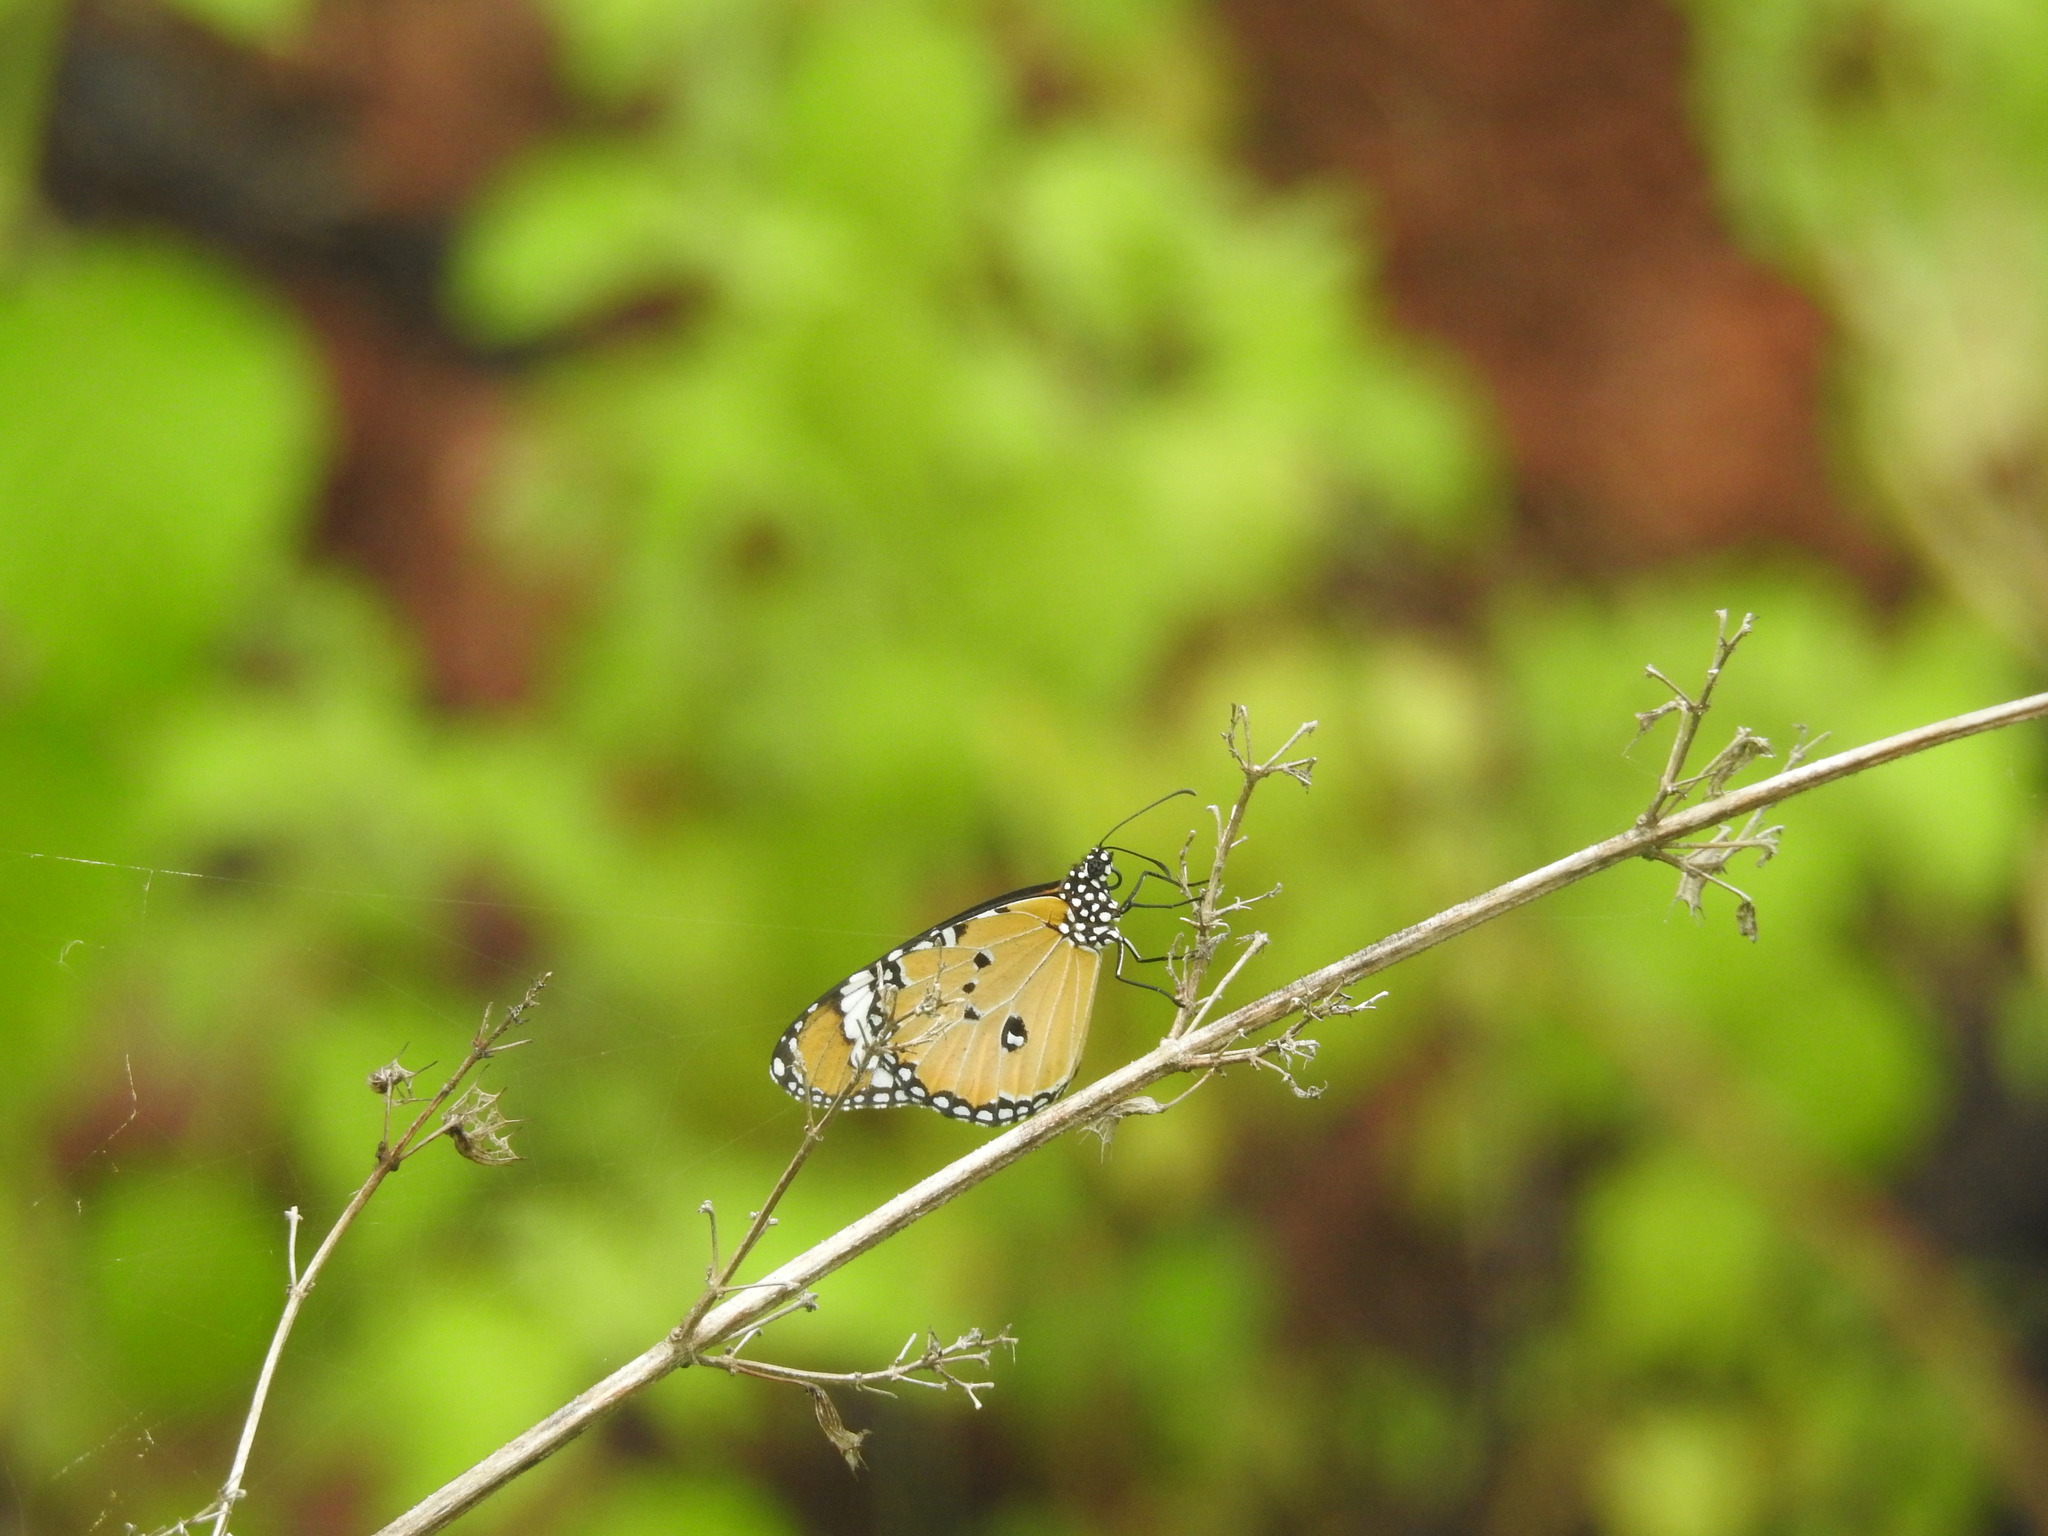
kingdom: Animalia
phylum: Arthropoda
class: Insecta
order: Lepidoptera
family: Nymphalidae
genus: Danaus
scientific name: Danaus chrysippus
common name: Plain tiger
